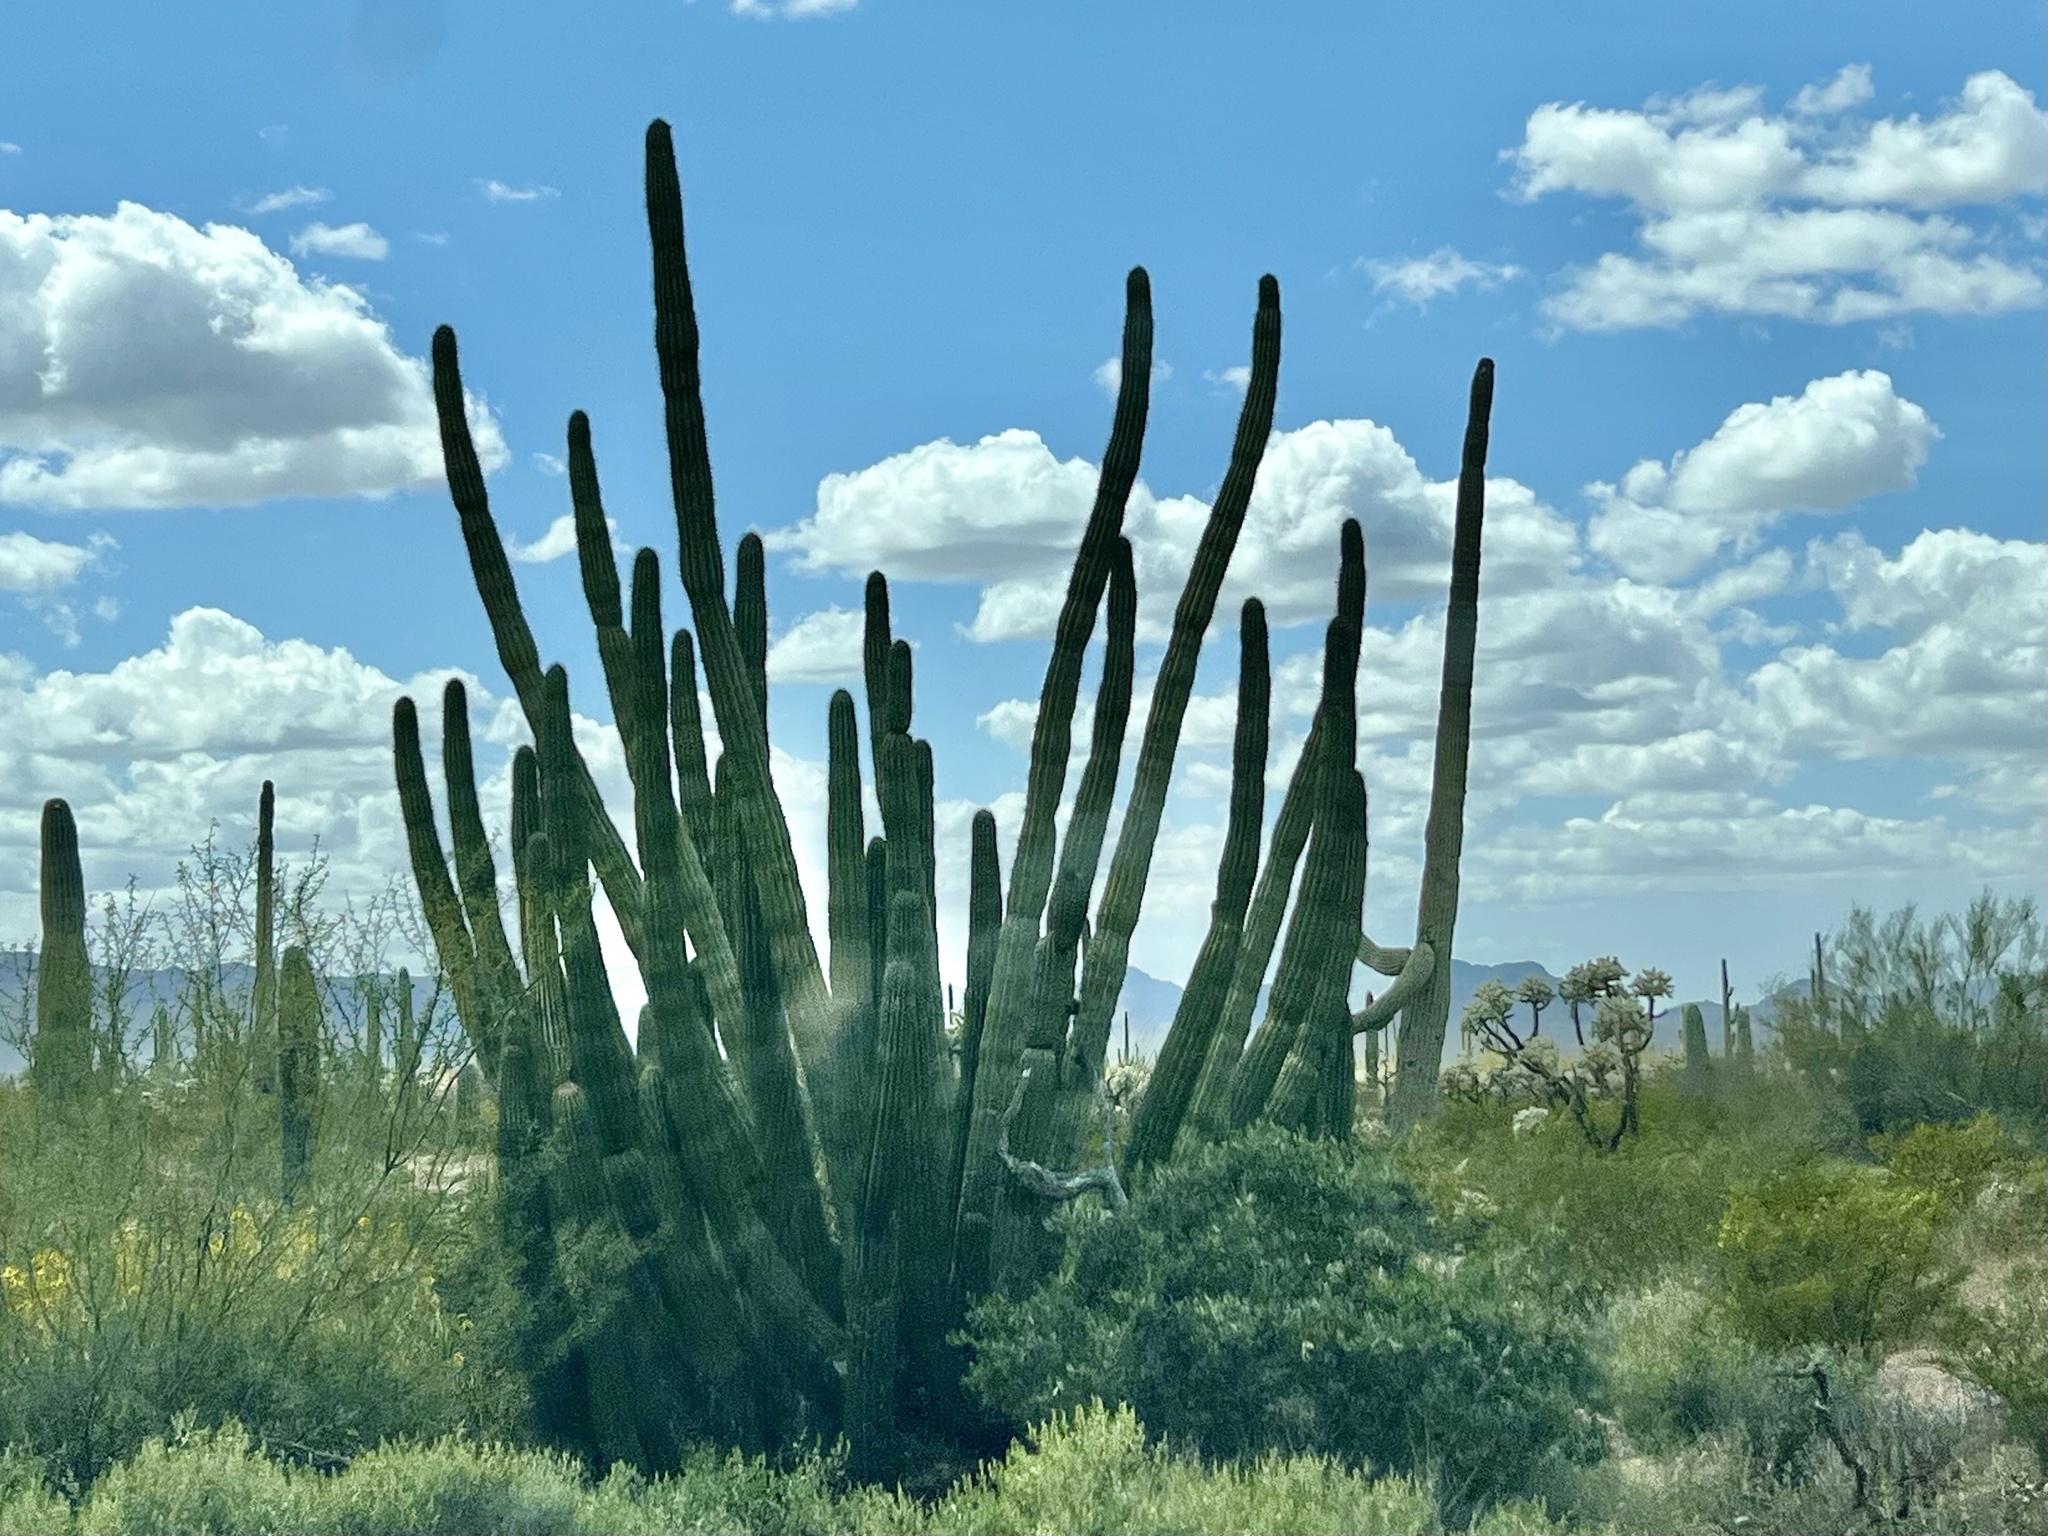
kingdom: Plantae
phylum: Tracheophyta
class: Magnoliopsida
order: Caryophyllales
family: Cactaceae
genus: Stenocereus
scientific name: Stenocereus thurberi
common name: Organ pipe cactus
